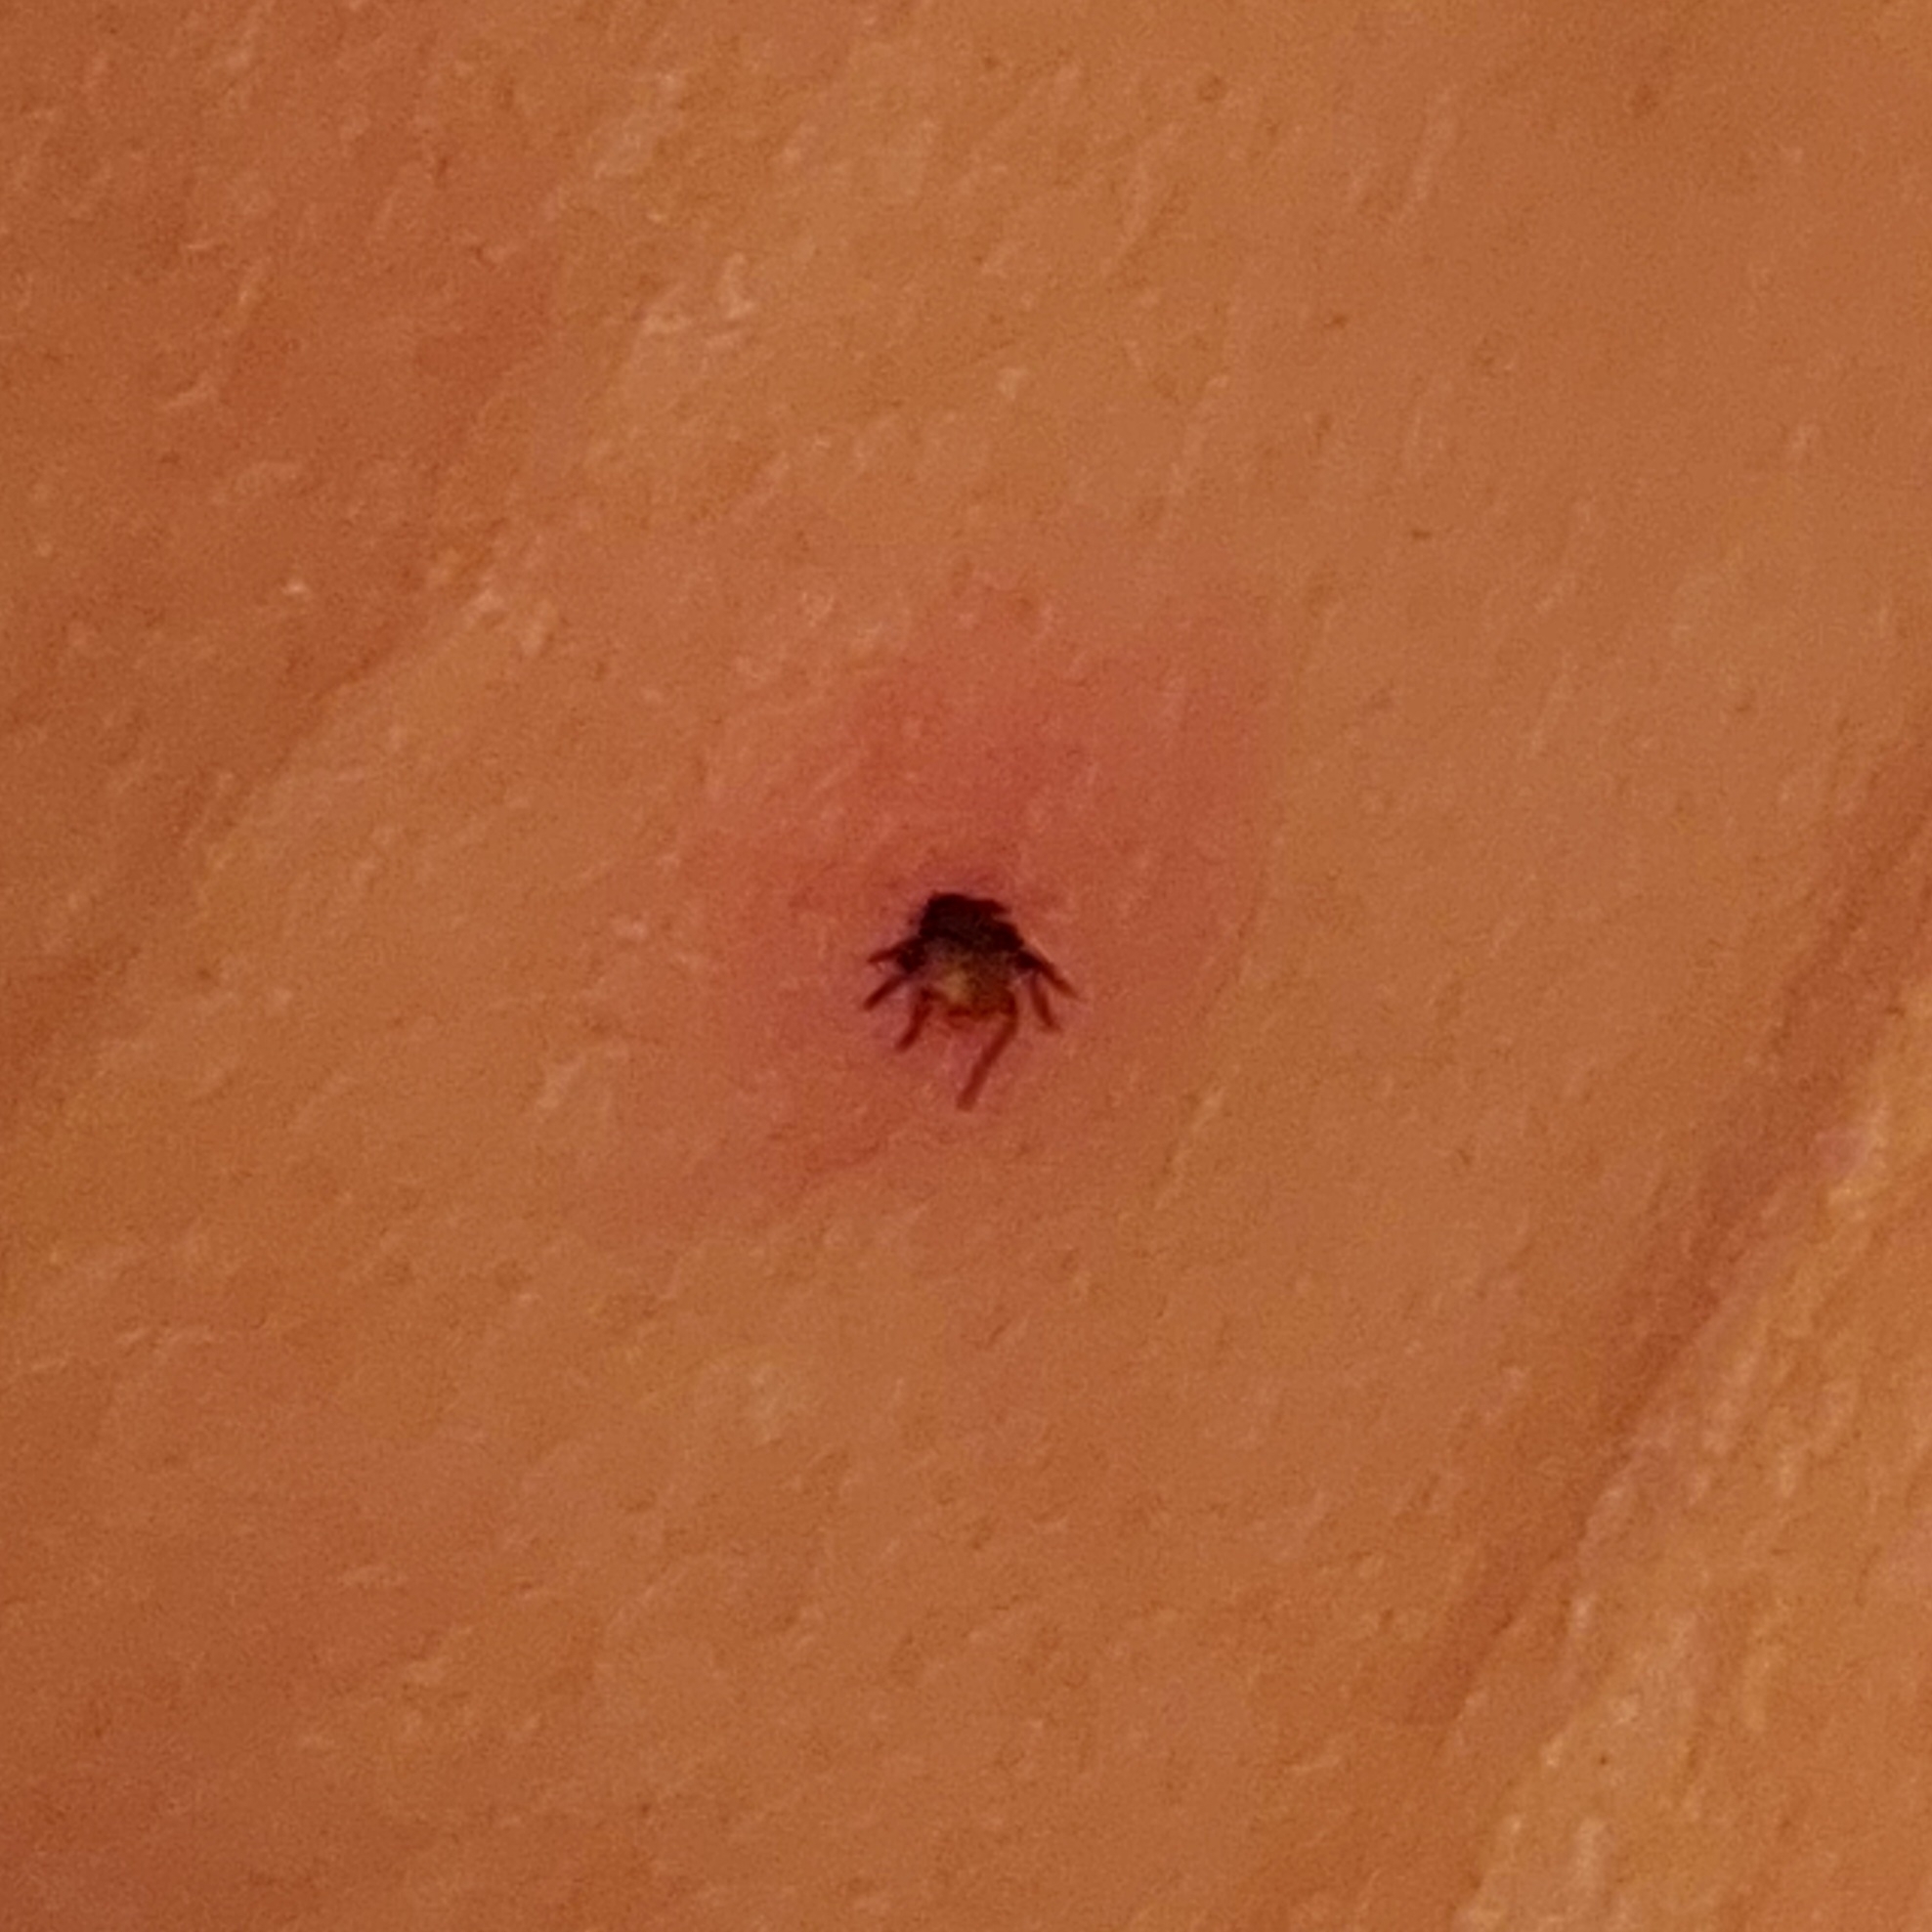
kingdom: Animalia
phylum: Arthropoda
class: Arachnida
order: Ixodida
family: Ixodidae
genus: Ixodes
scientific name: Ixodes ricinus
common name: Castor bean tick
